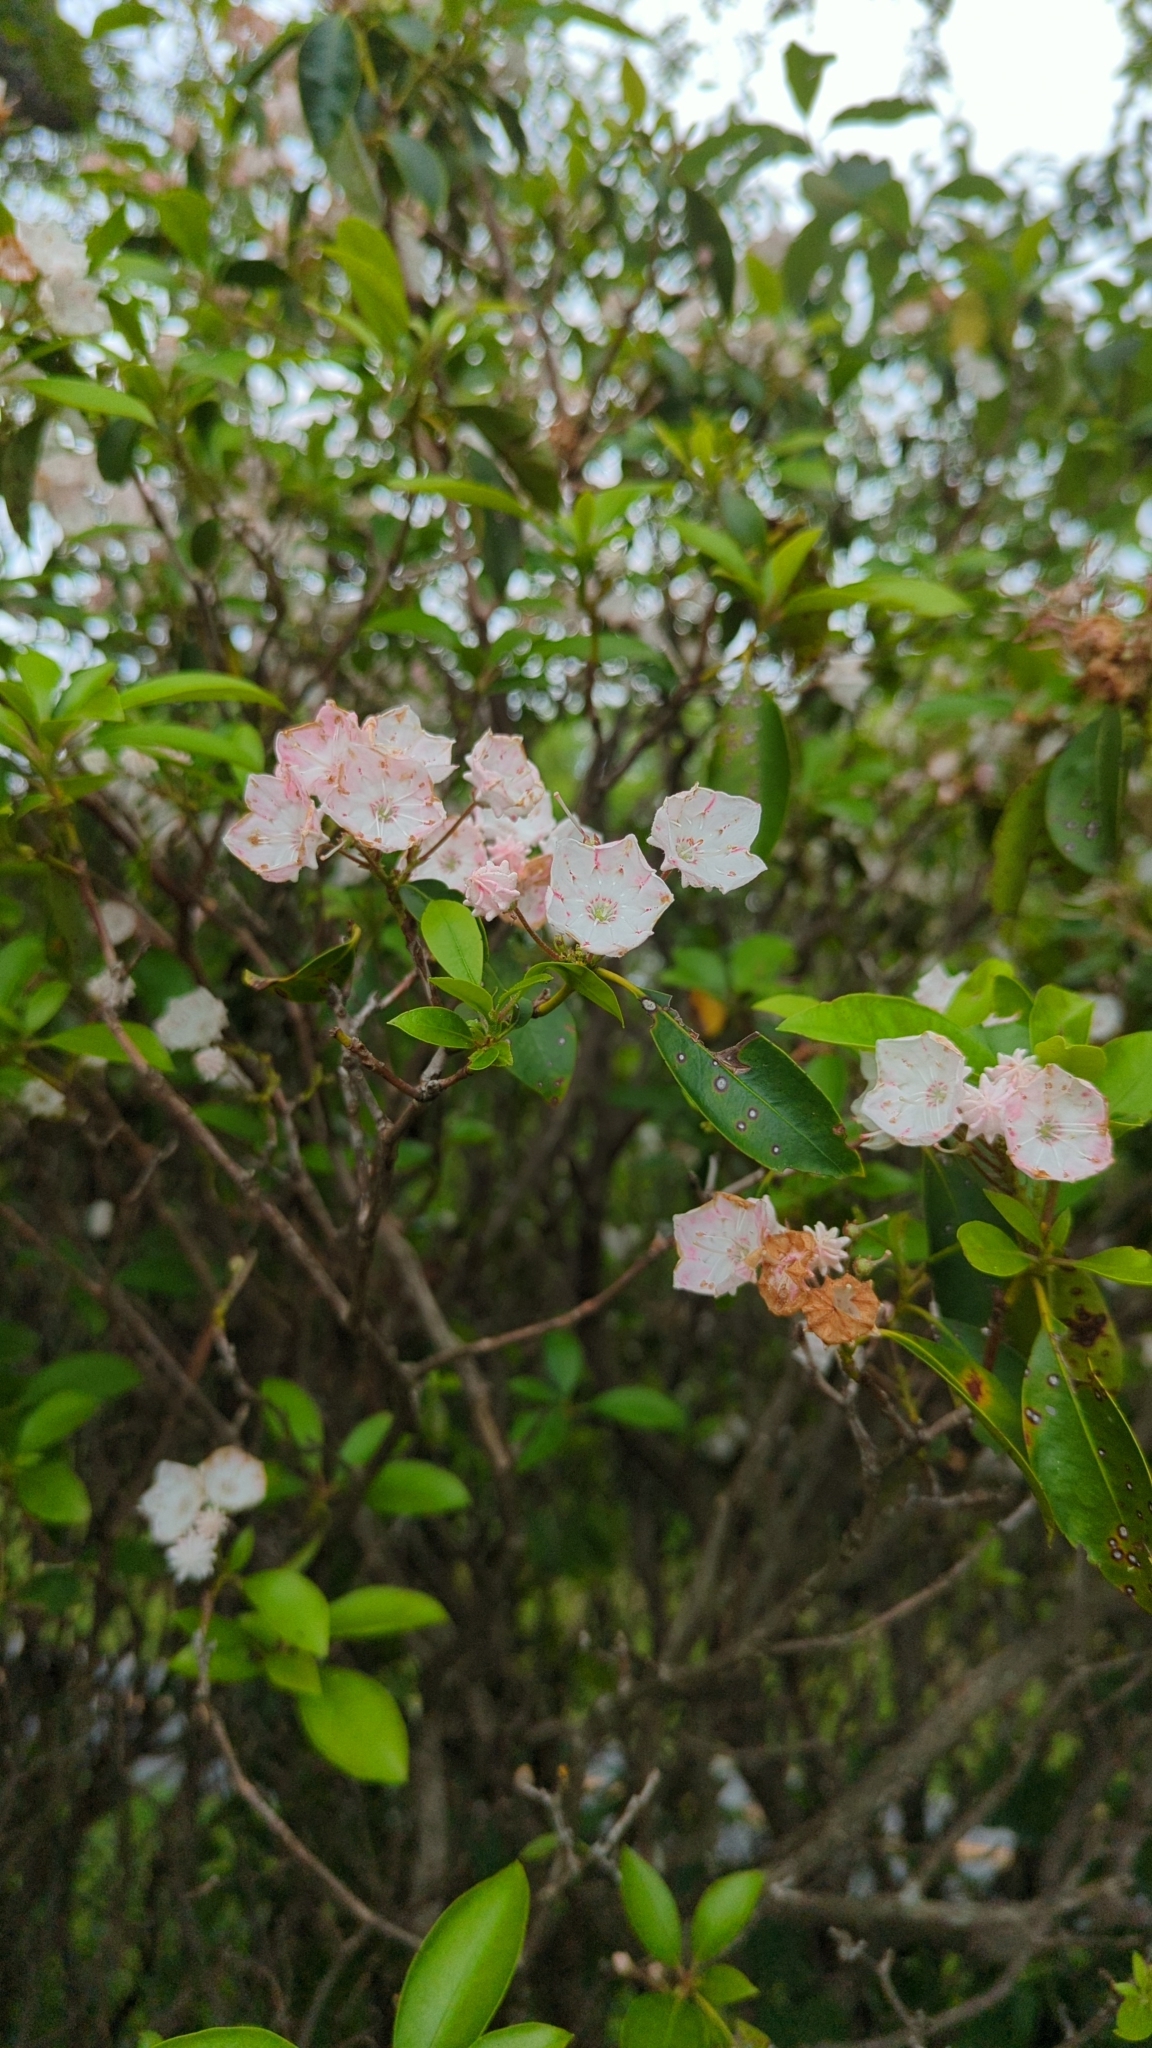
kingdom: Plantae
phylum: Tracheophyta
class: Magnoliopsida
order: Ericales
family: Ericaceae
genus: Kalmia
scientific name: Kalmia latifolia
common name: Mountain-laurel
